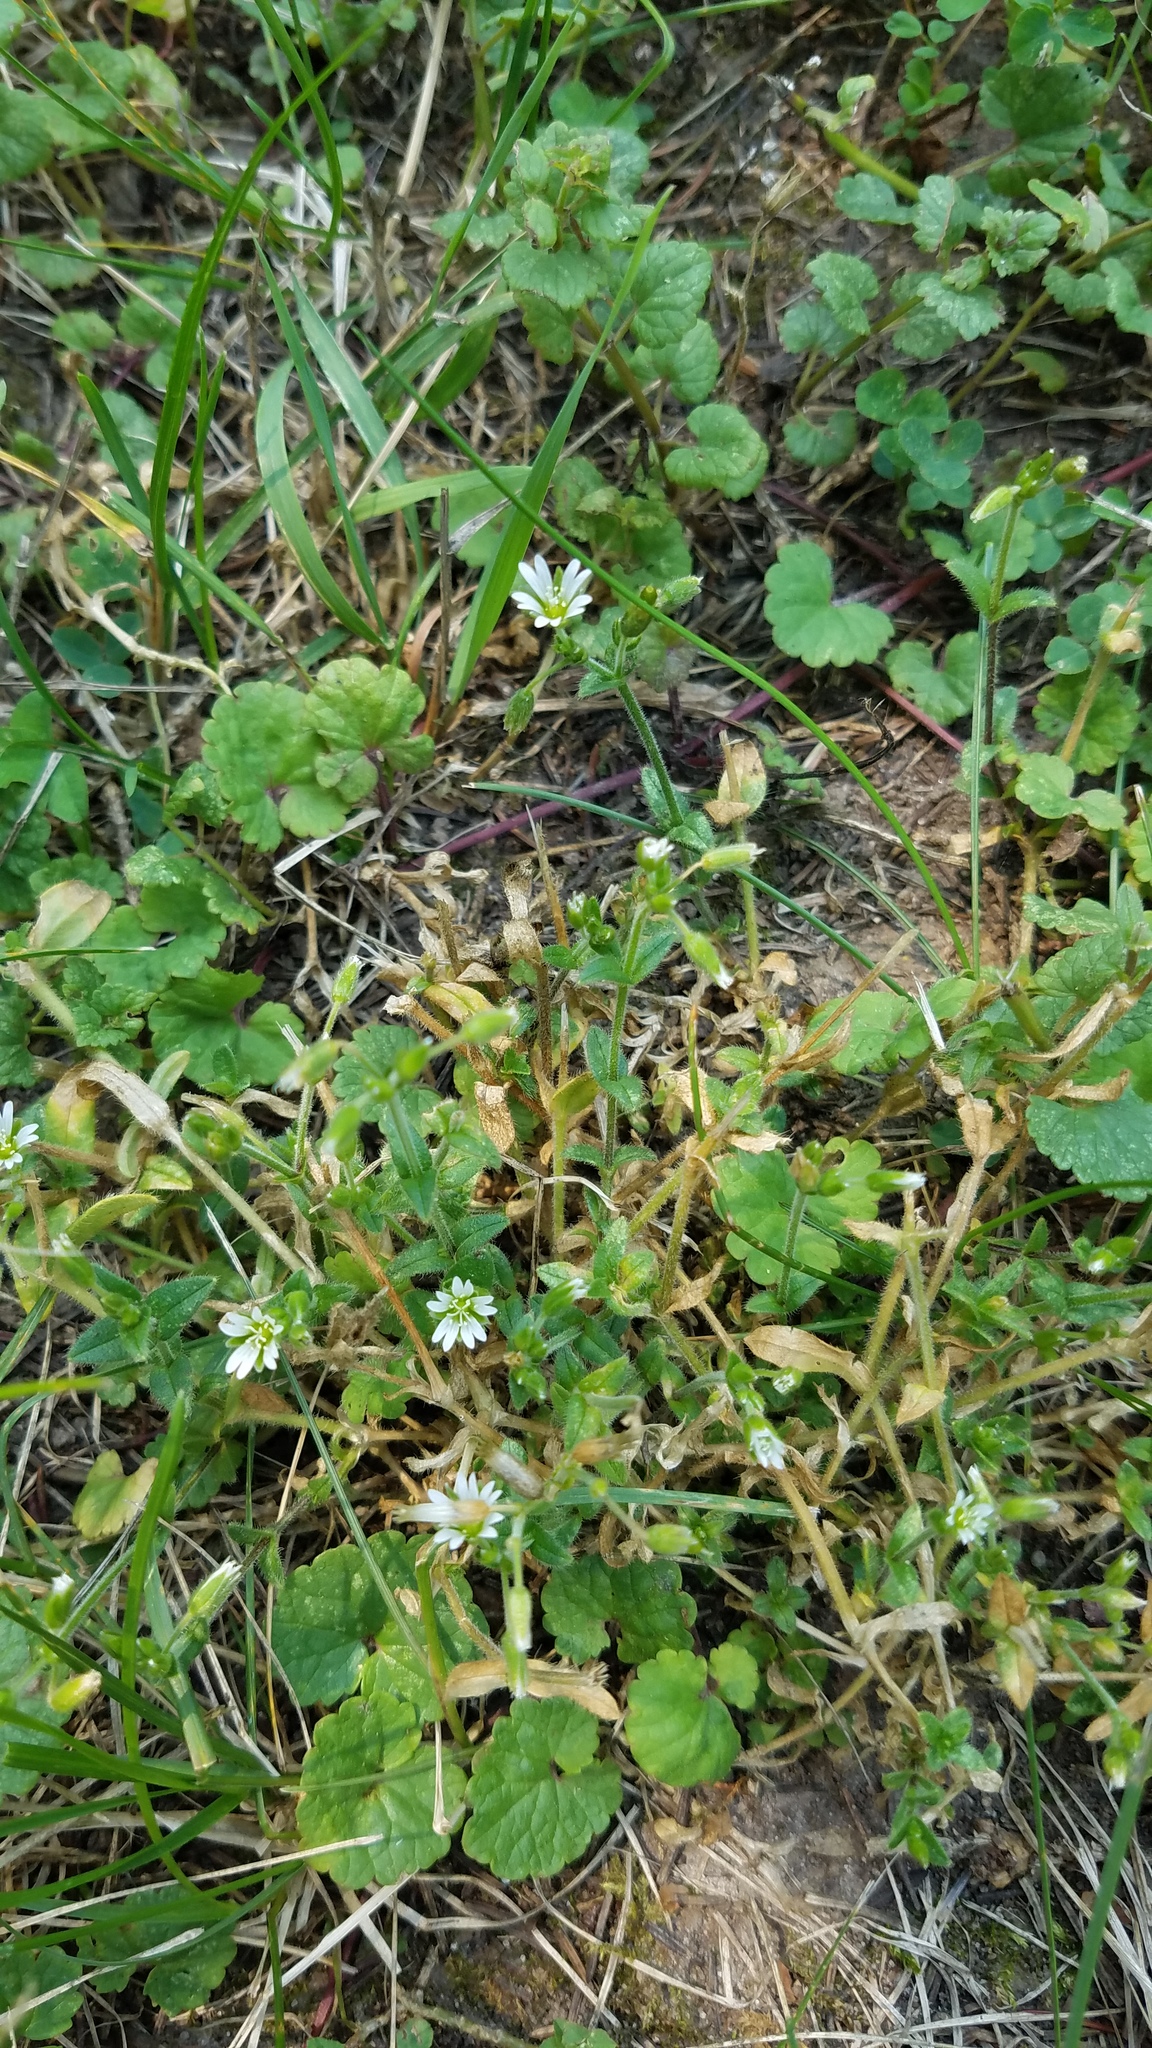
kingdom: Plantae
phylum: Tracheophyta
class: Magnoliopsida
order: Caryophyllales
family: Caryophyllaceae
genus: Cerastium
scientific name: Cerastium fontanum
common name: Common mouse-ear
